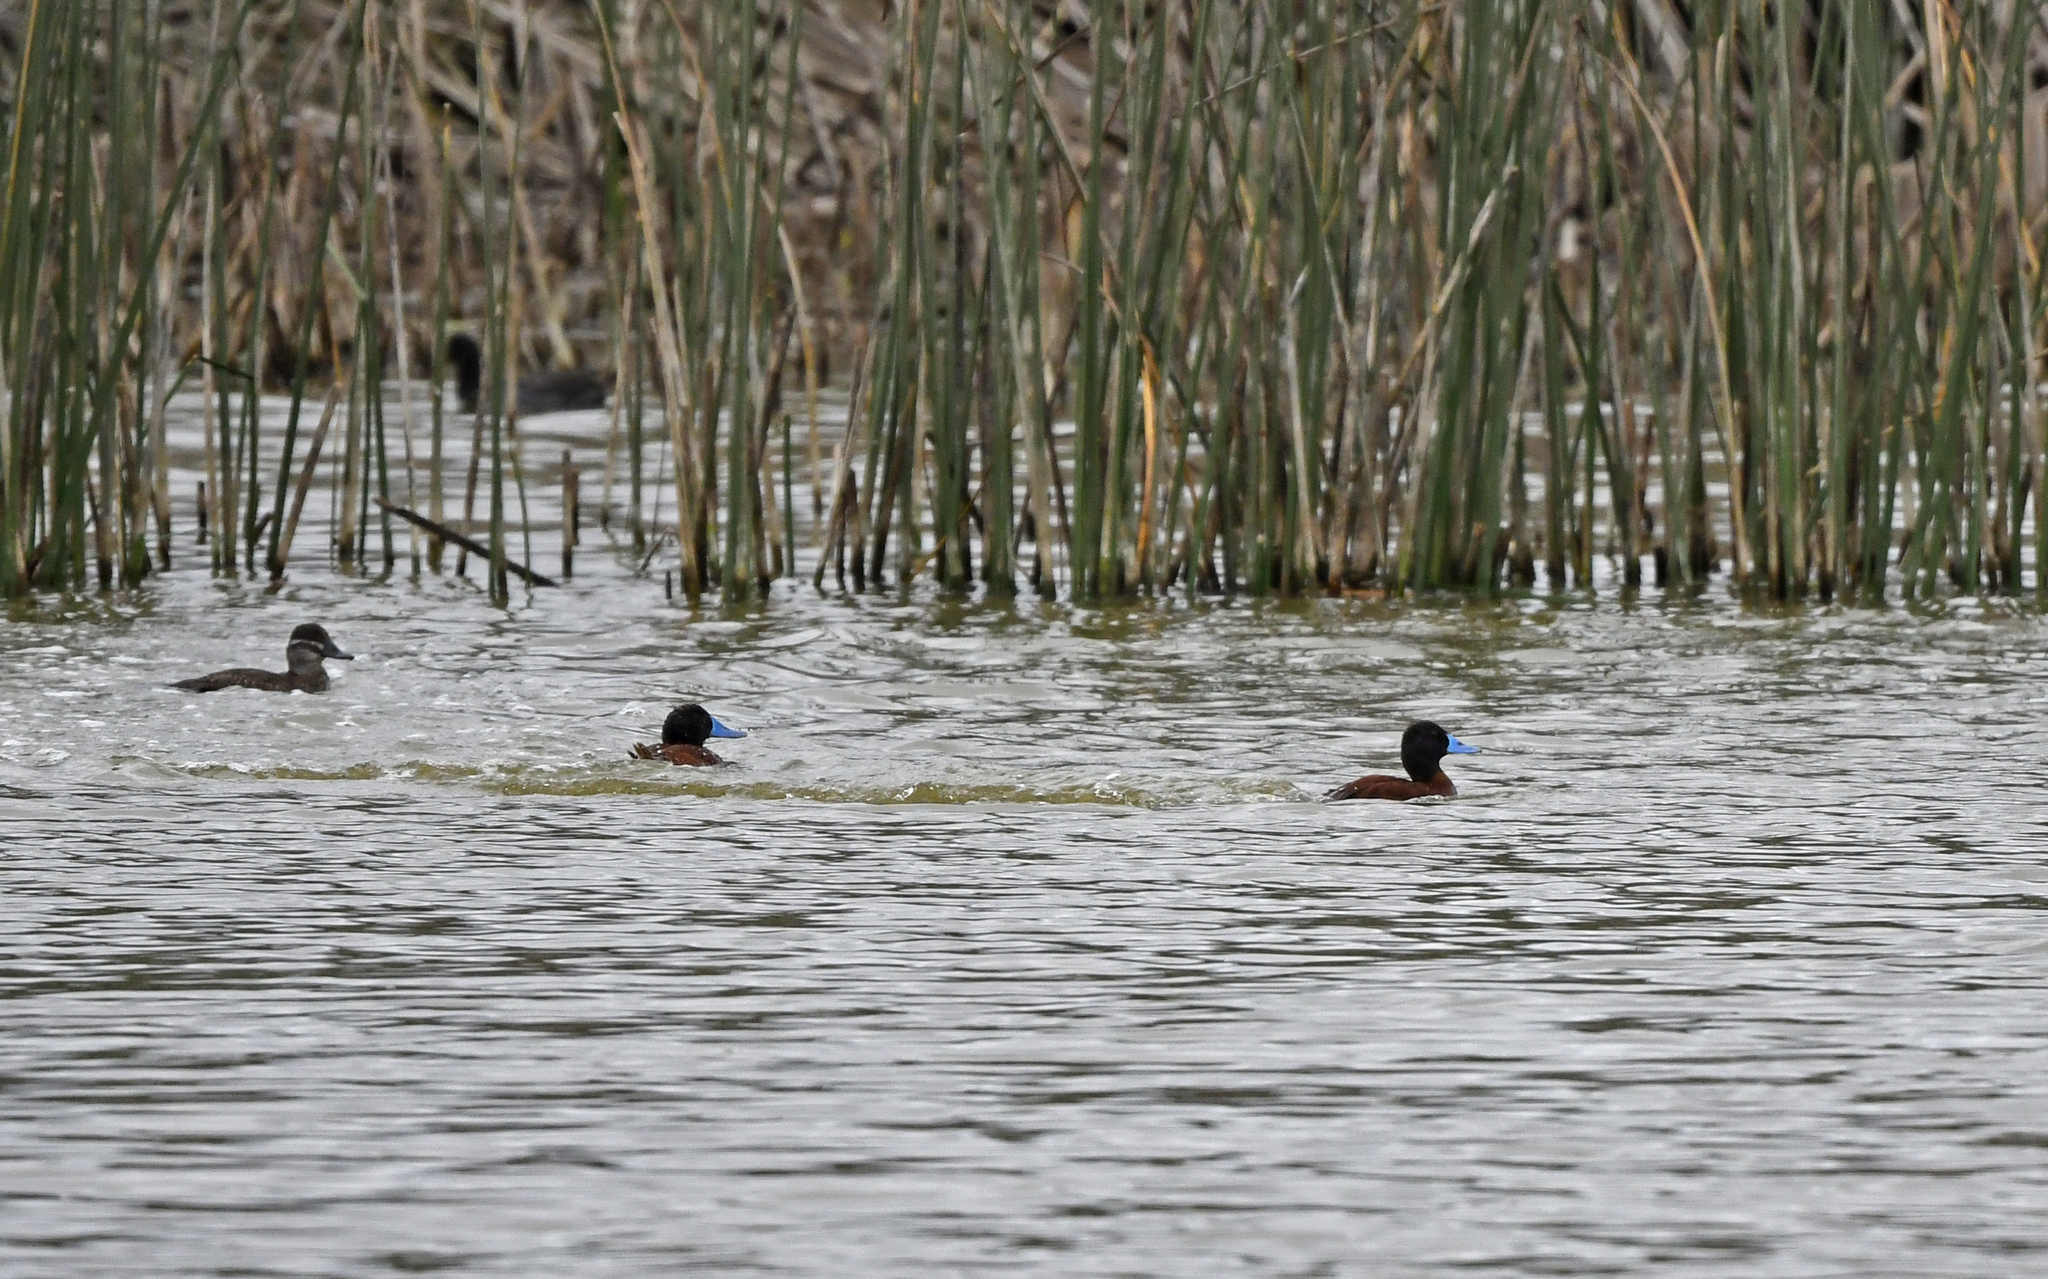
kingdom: Animalia
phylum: Chordata
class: Aves
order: Anseriformes
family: Anatidae
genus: Oxyura
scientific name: Oxyura vittata
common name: Lake duck
